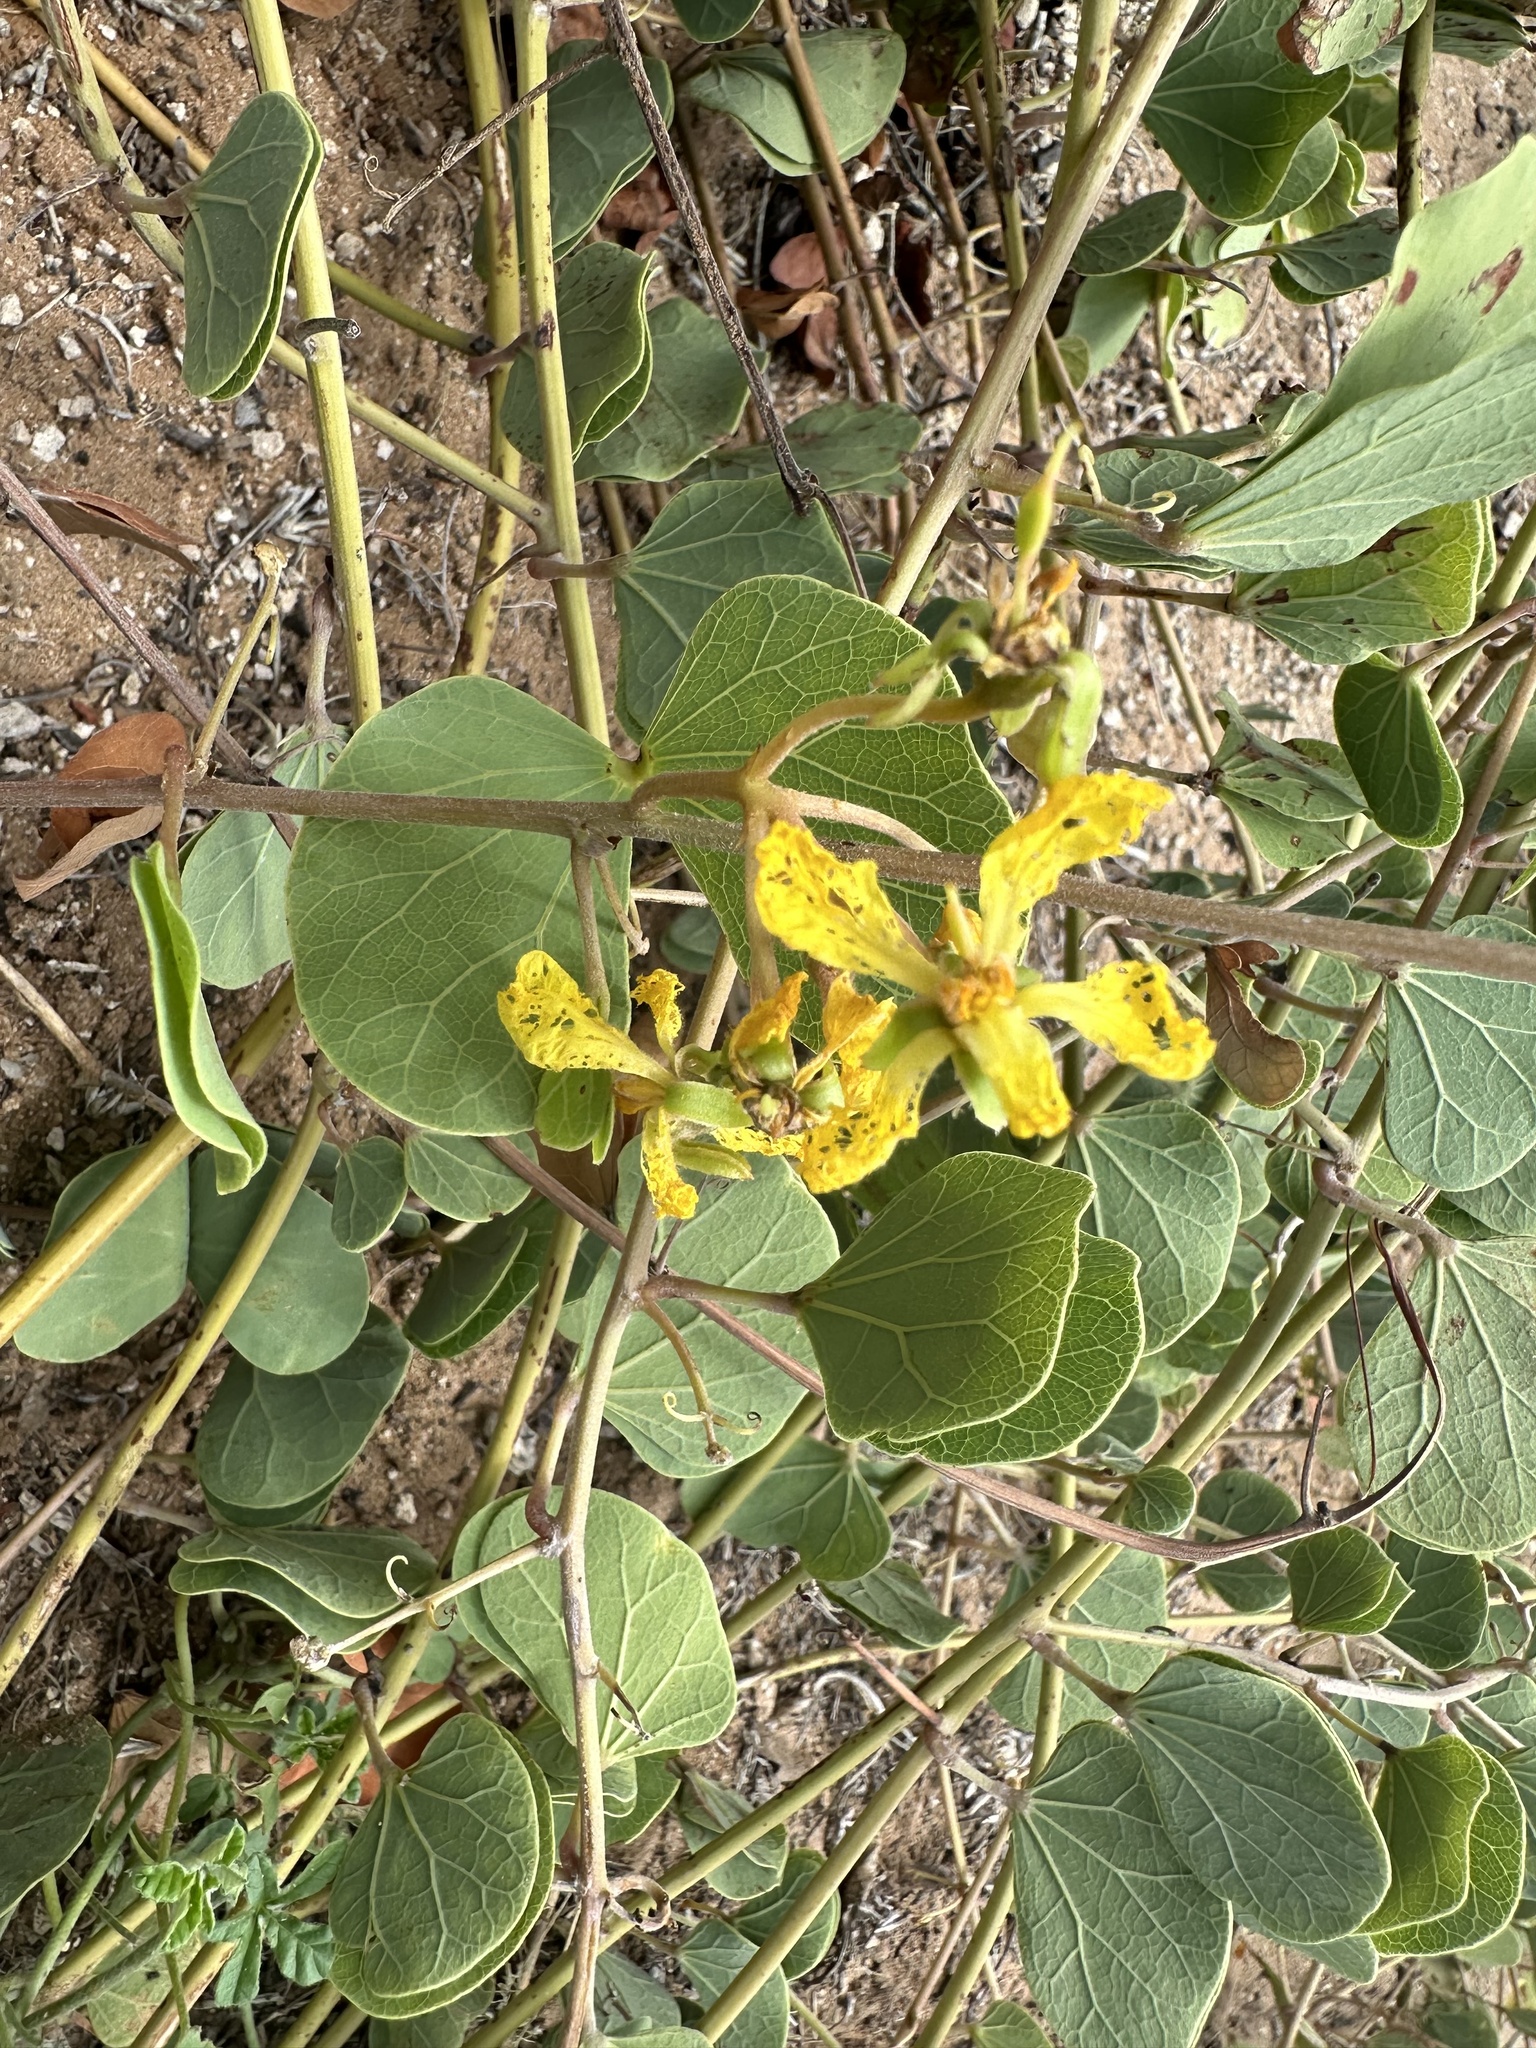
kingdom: Plantae
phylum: Tracheophyta
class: Magnoliopsida
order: Fabales
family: Fabaceae
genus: Tylosema
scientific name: Tylosema esculentum
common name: Marama-bean
